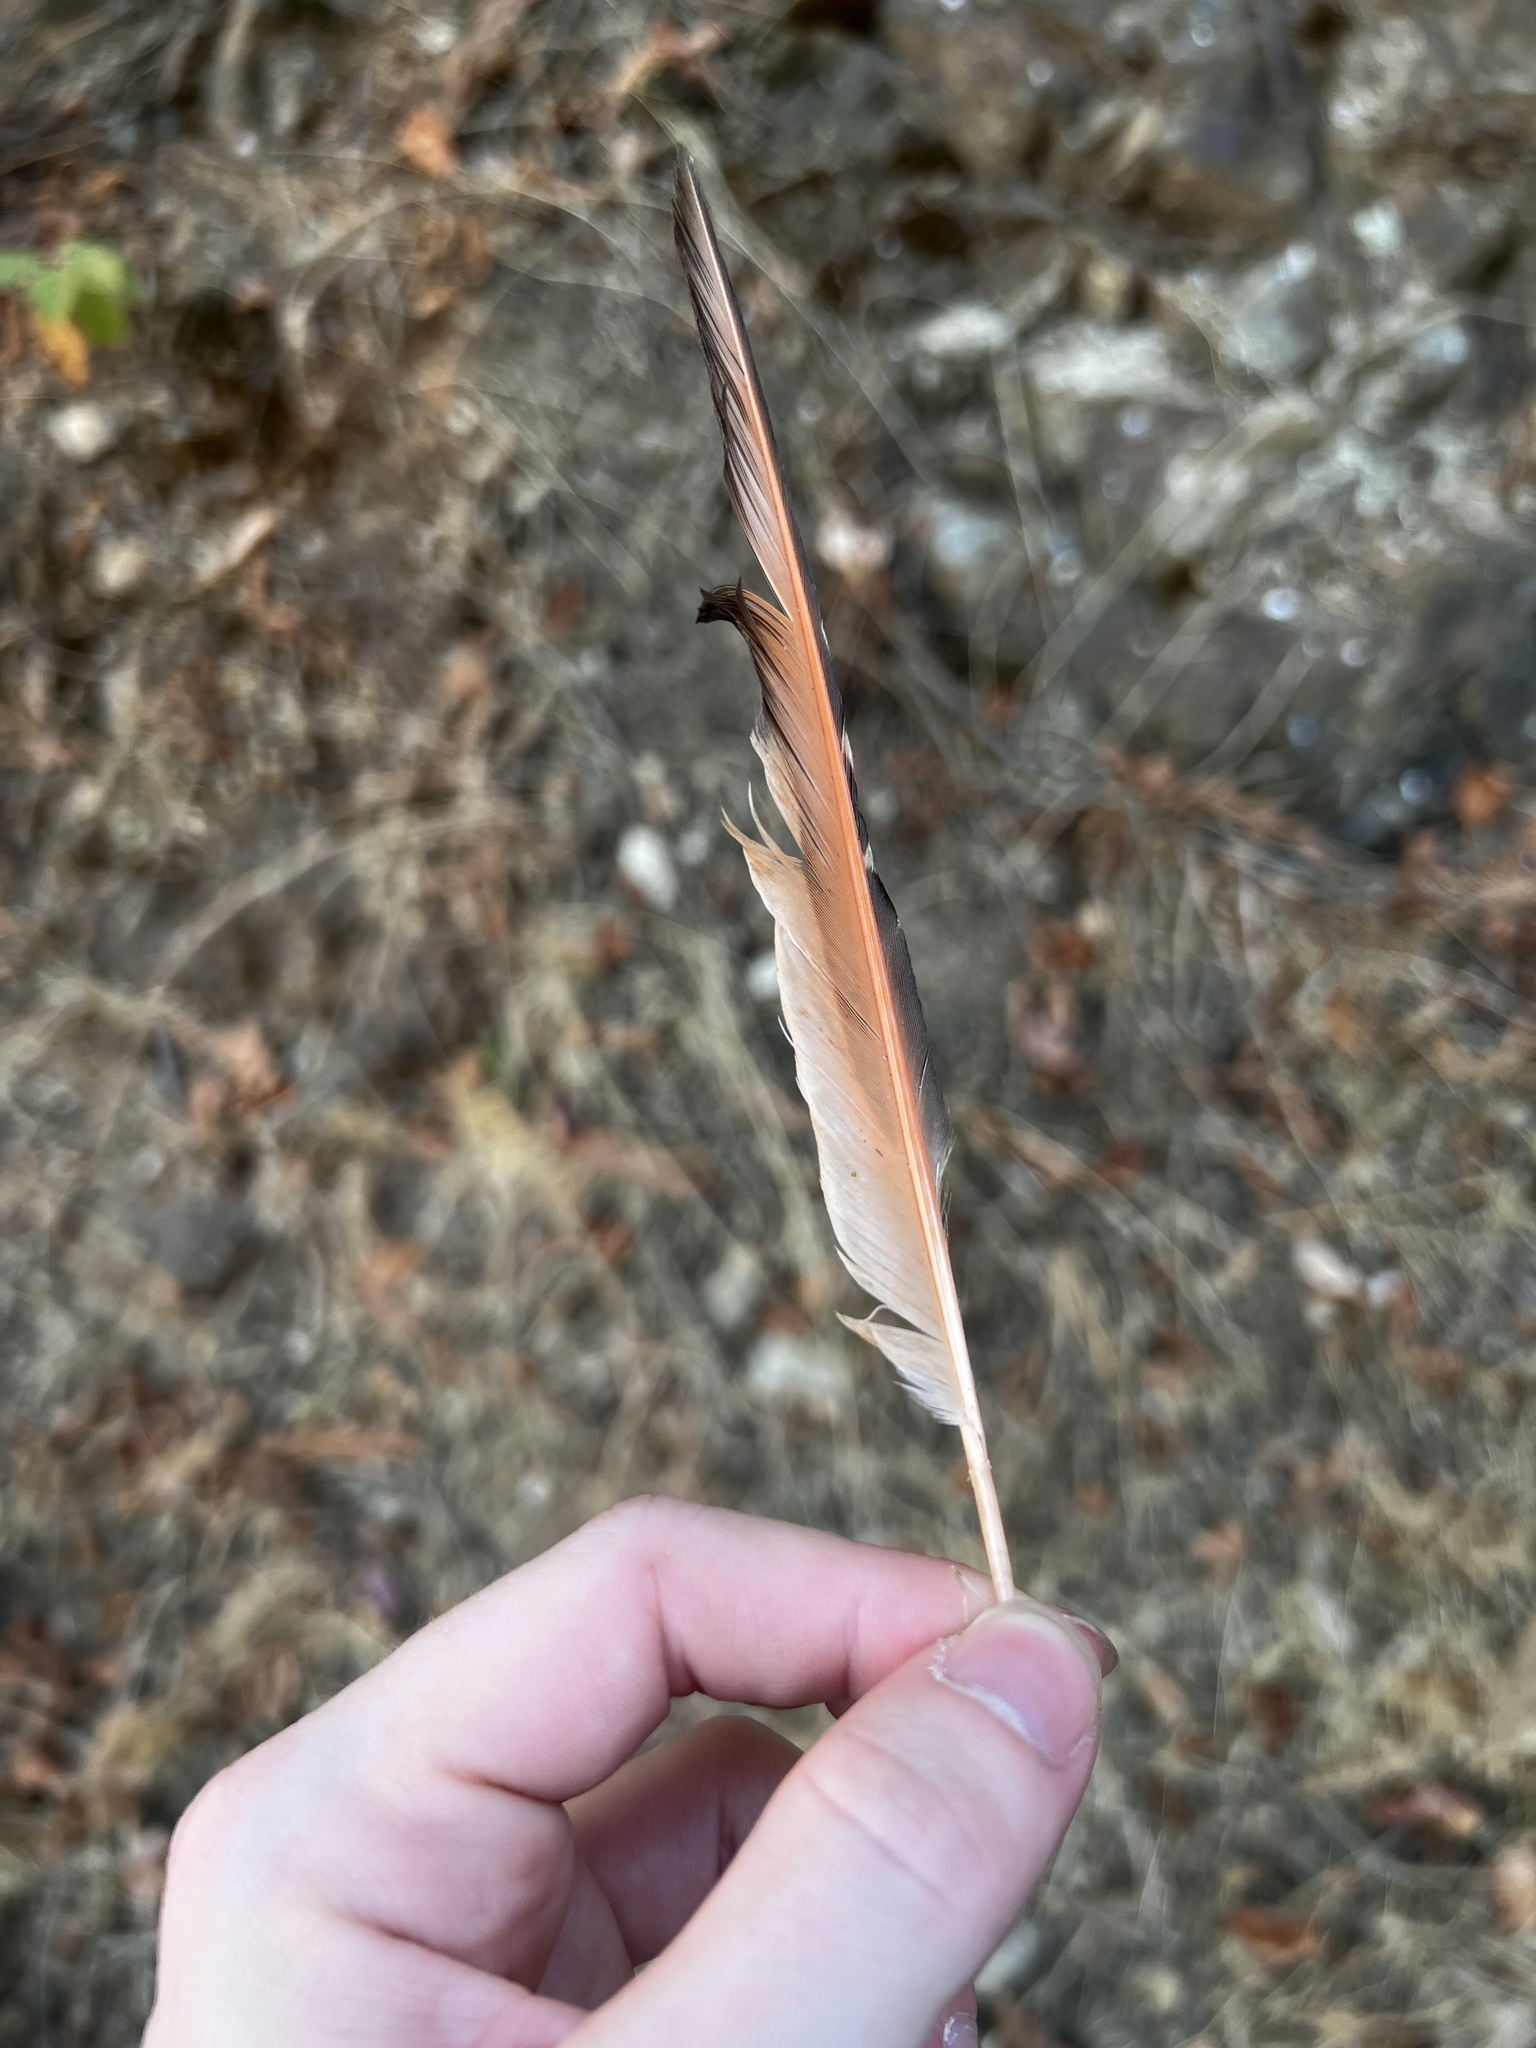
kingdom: Animalia
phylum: Chordata
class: Aves
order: Piciformes
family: Picidae
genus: Colaptes
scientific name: Colaptes auratus
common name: Northern flicker
